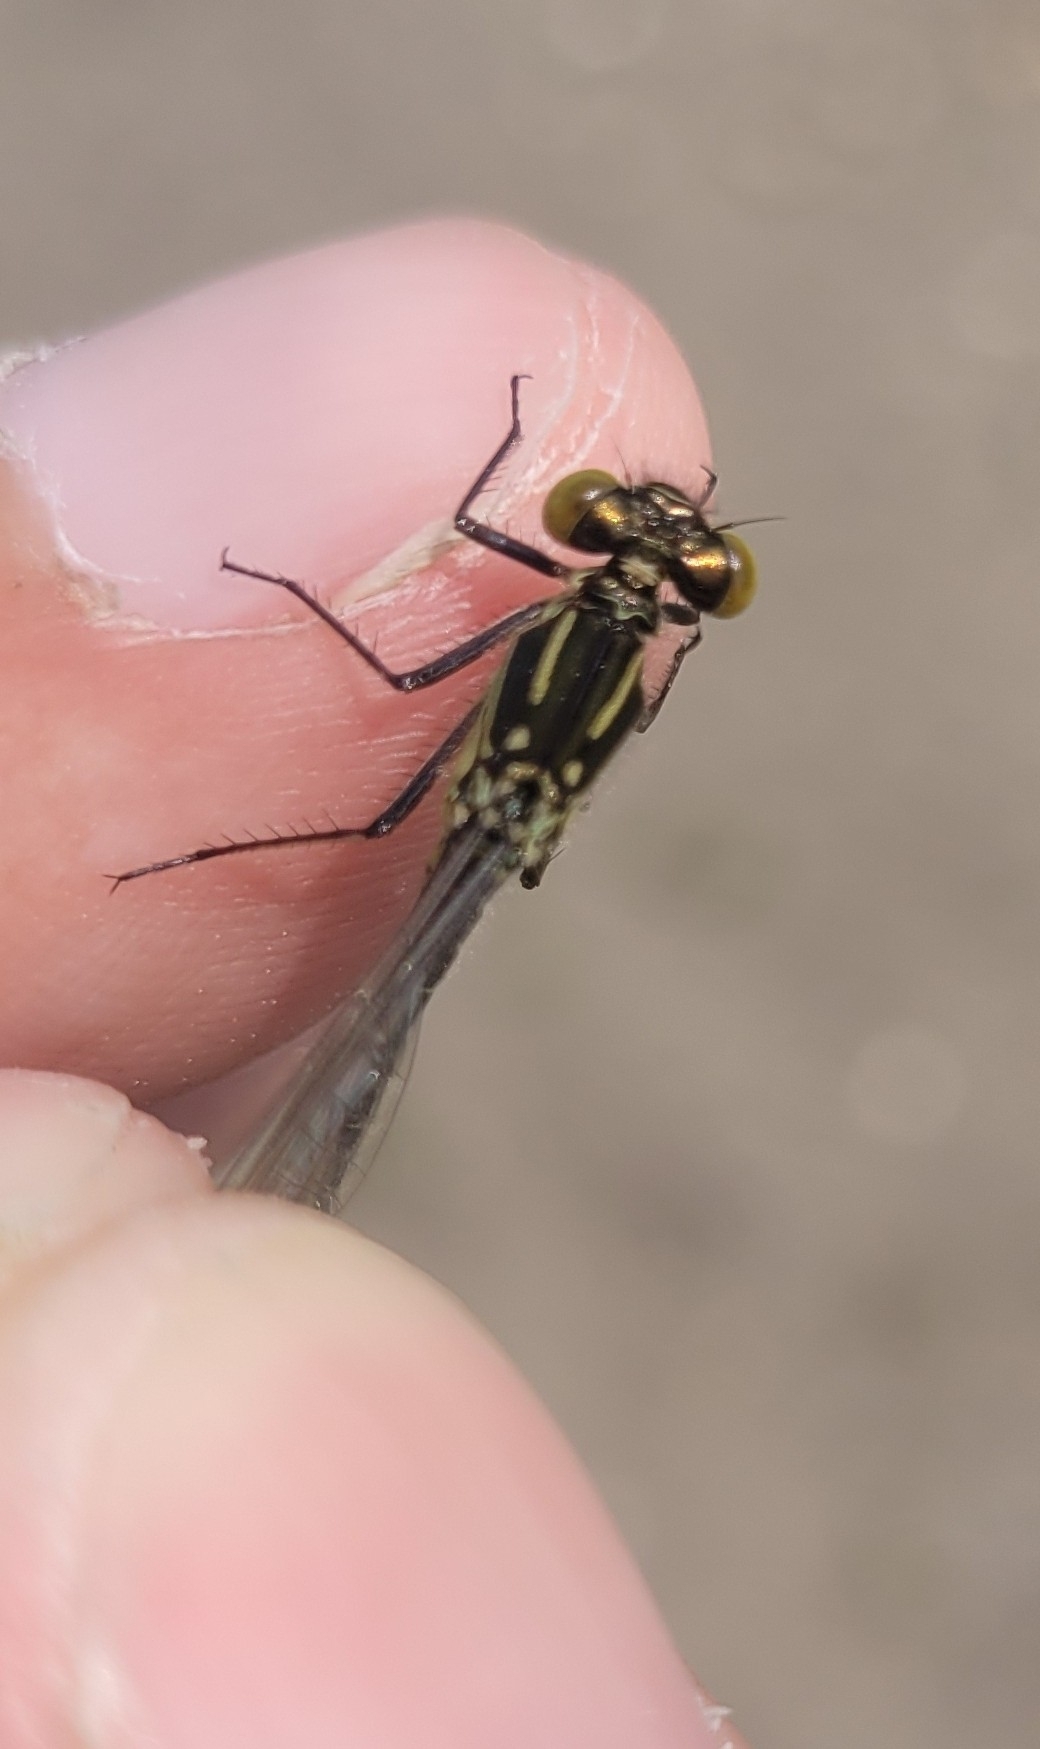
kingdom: Animalia
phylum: Arthropoda
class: Insecta
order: Odonata
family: Coenagrionidae
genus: Erythromma
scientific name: Erythromma najas
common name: Red-eyed damselfly
